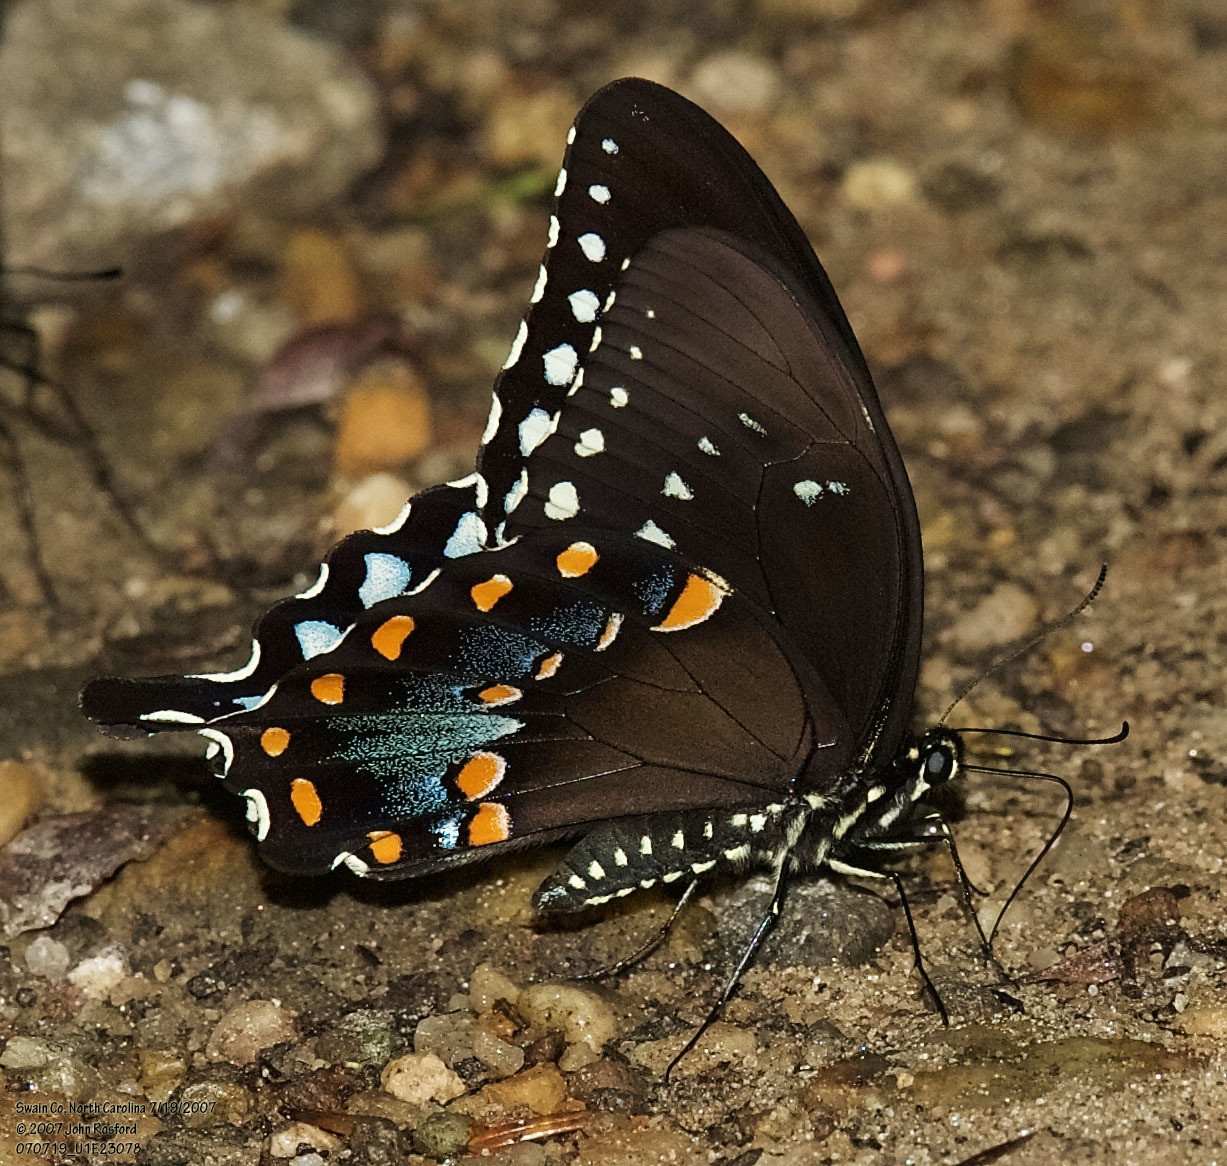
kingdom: Animalia
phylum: Arthropoda
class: Insecta
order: Lepidoptera
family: Papilionidae
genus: Papilio
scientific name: Papilio troilus
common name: Spicebush swallowtail
